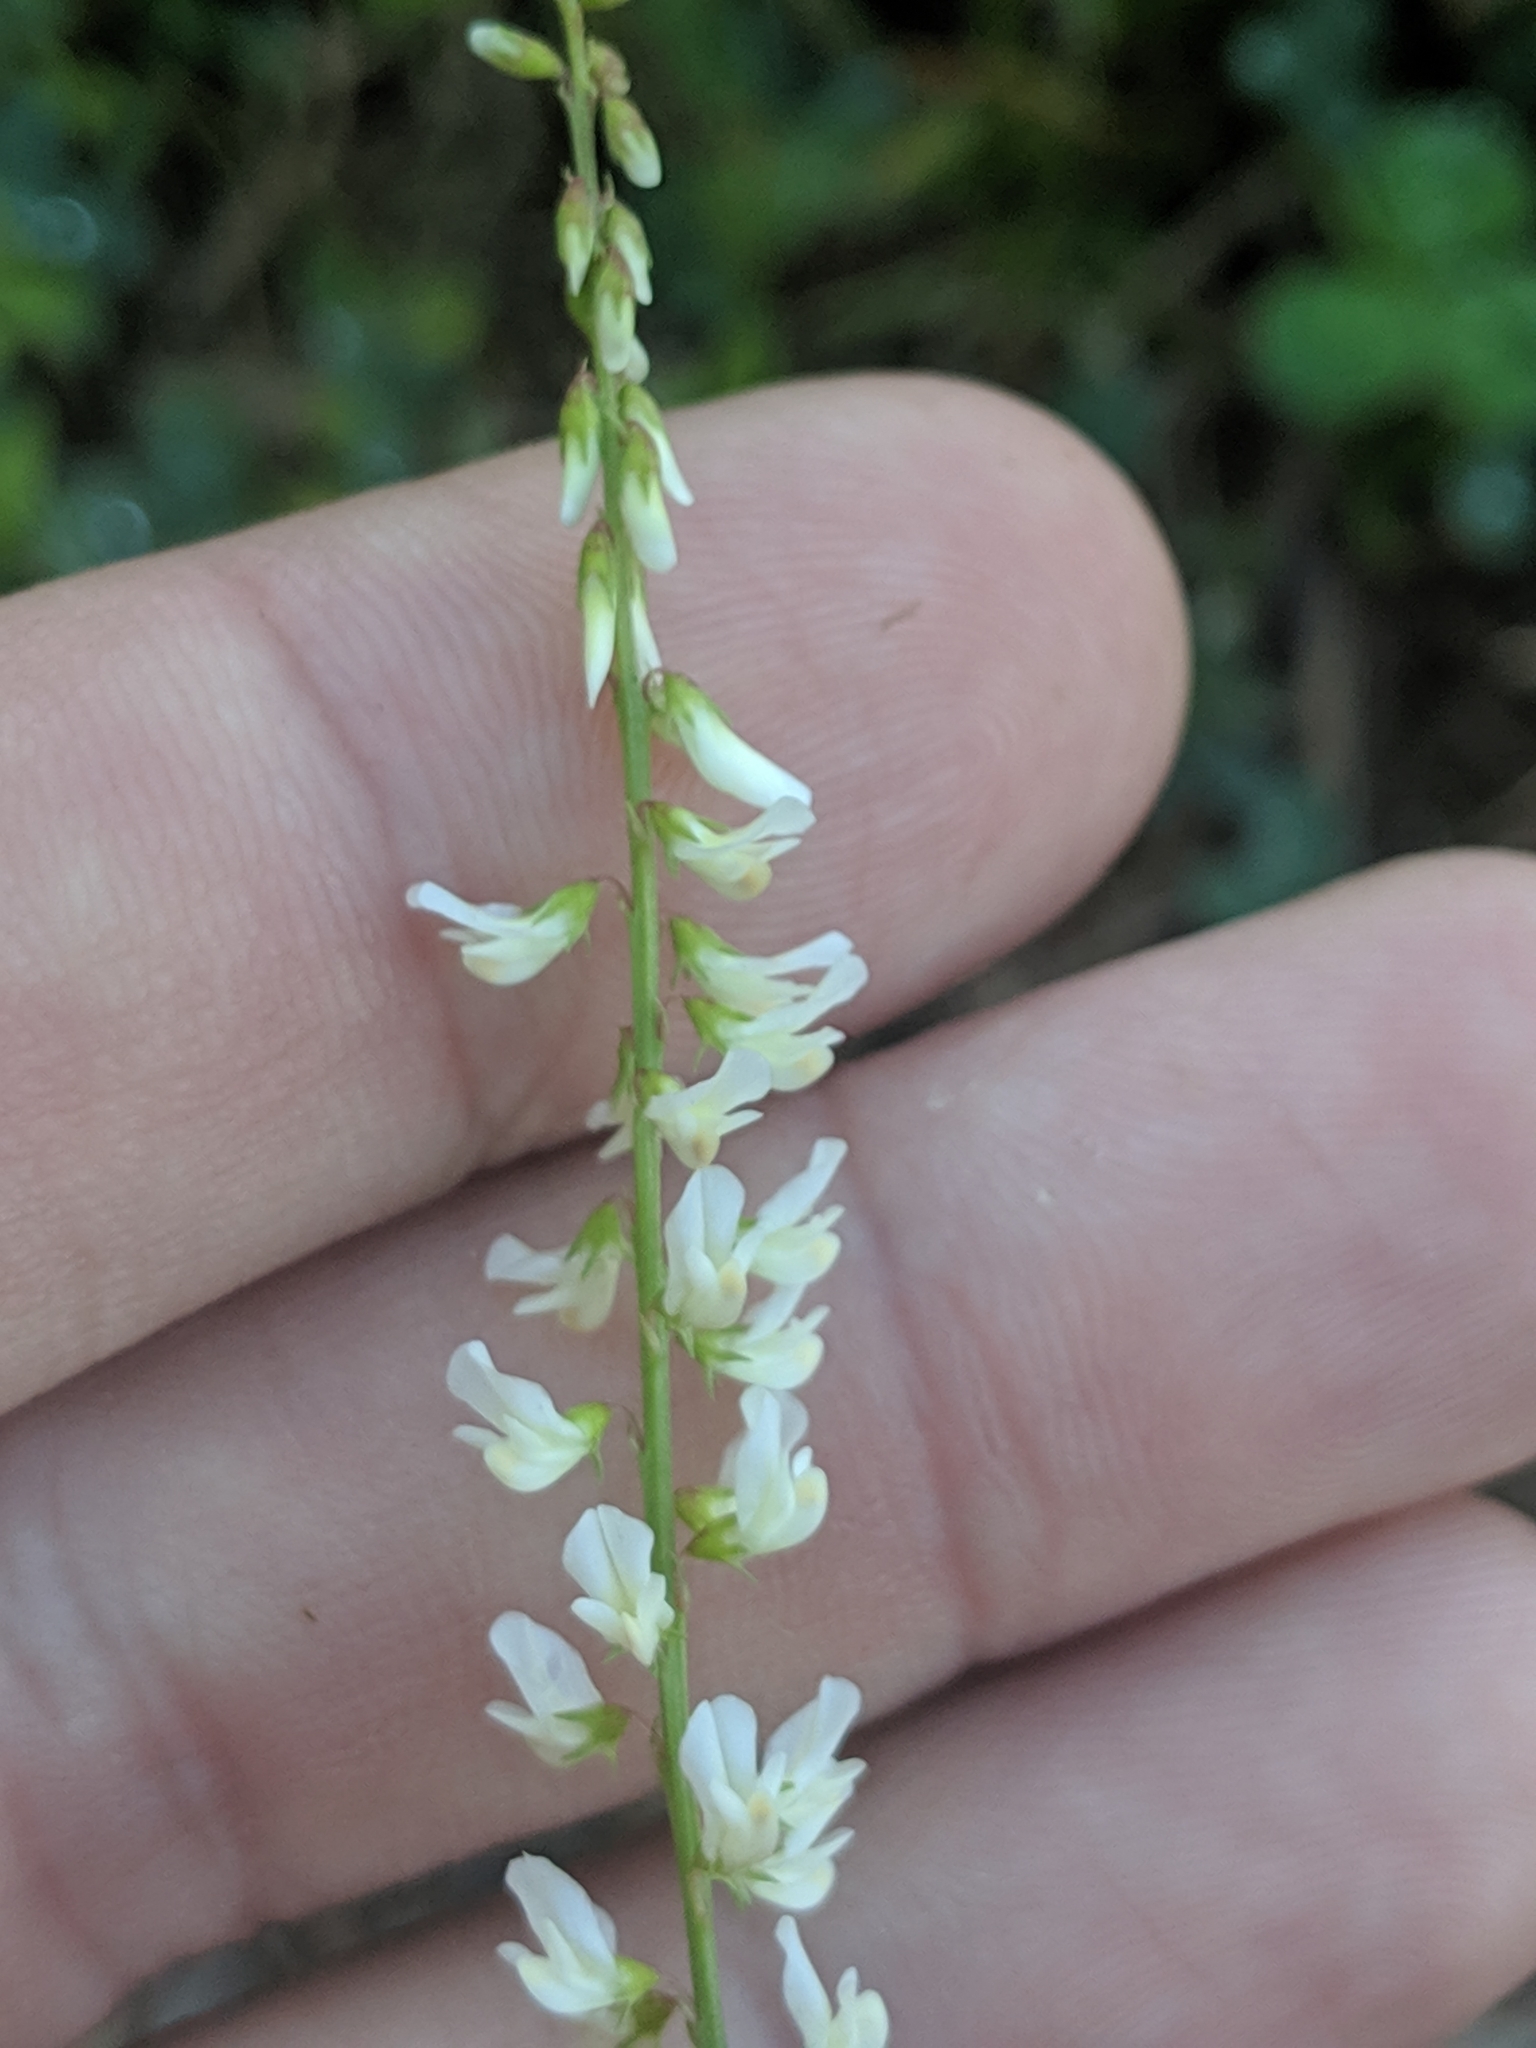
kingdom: Plantae
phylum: Tracheophyta
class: Magnoliopsida
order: Fabales
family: Fabaceae
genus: Melilotus
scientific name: Melilotus albus
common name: White melilot
